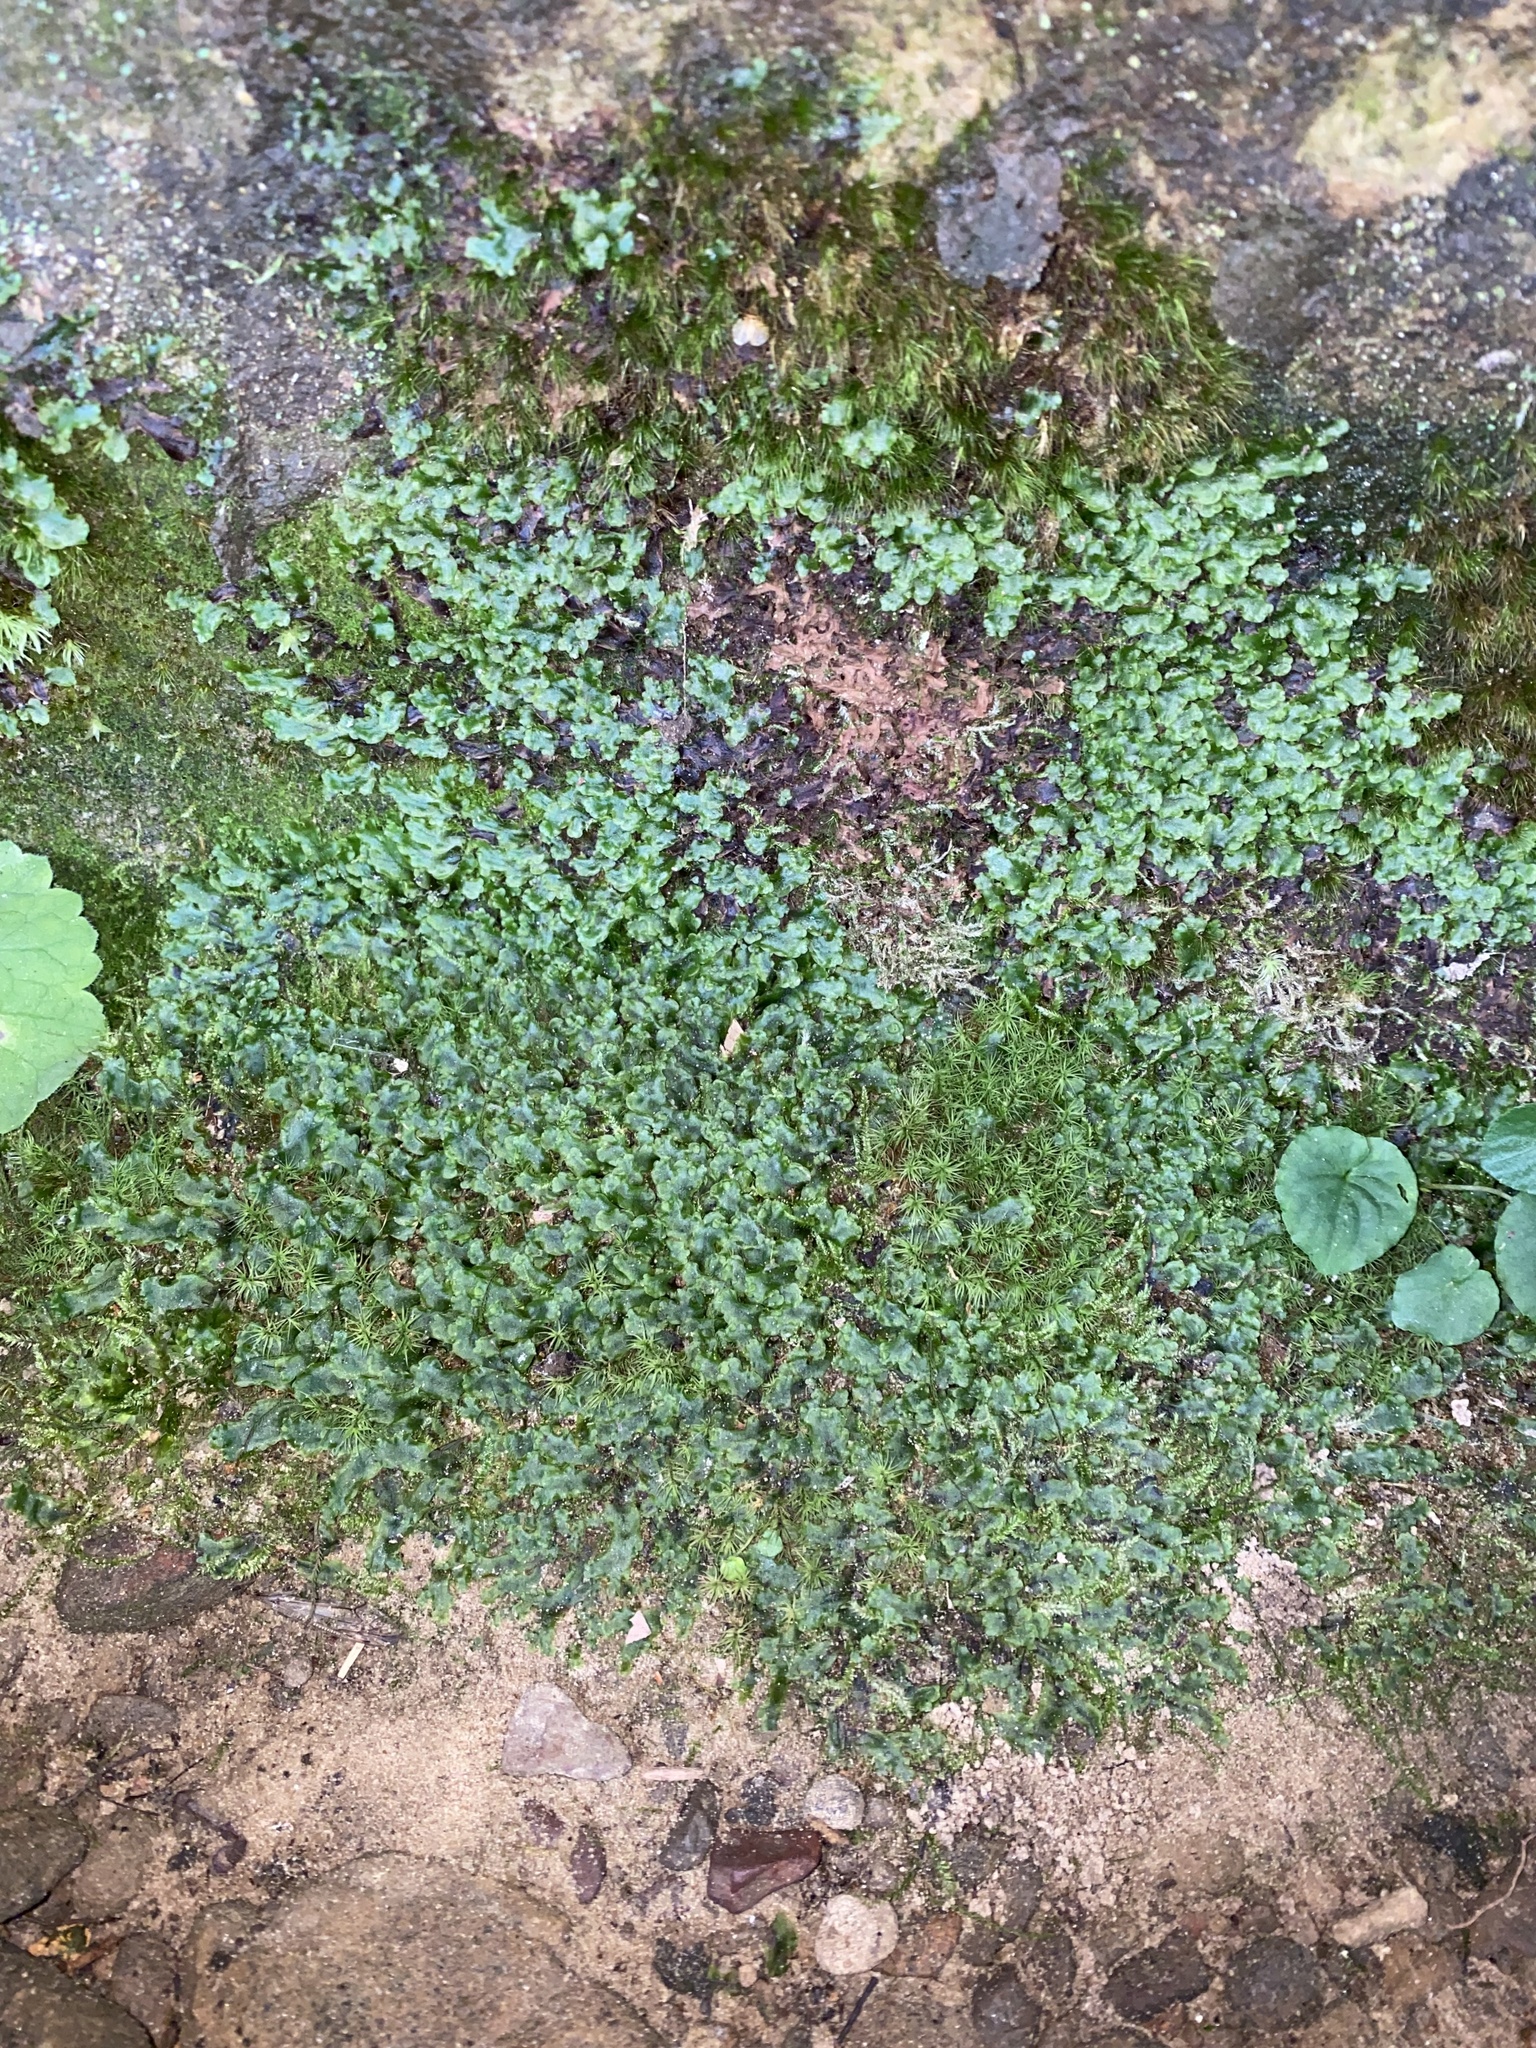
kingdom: Plantae
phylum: Marchantiophyta
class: Marchantiopsida
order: Marchantiales
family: Aytoniaceae
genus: Reboulia
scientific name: Reboulia hemisphaerica
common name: Purple-margined liverwort
